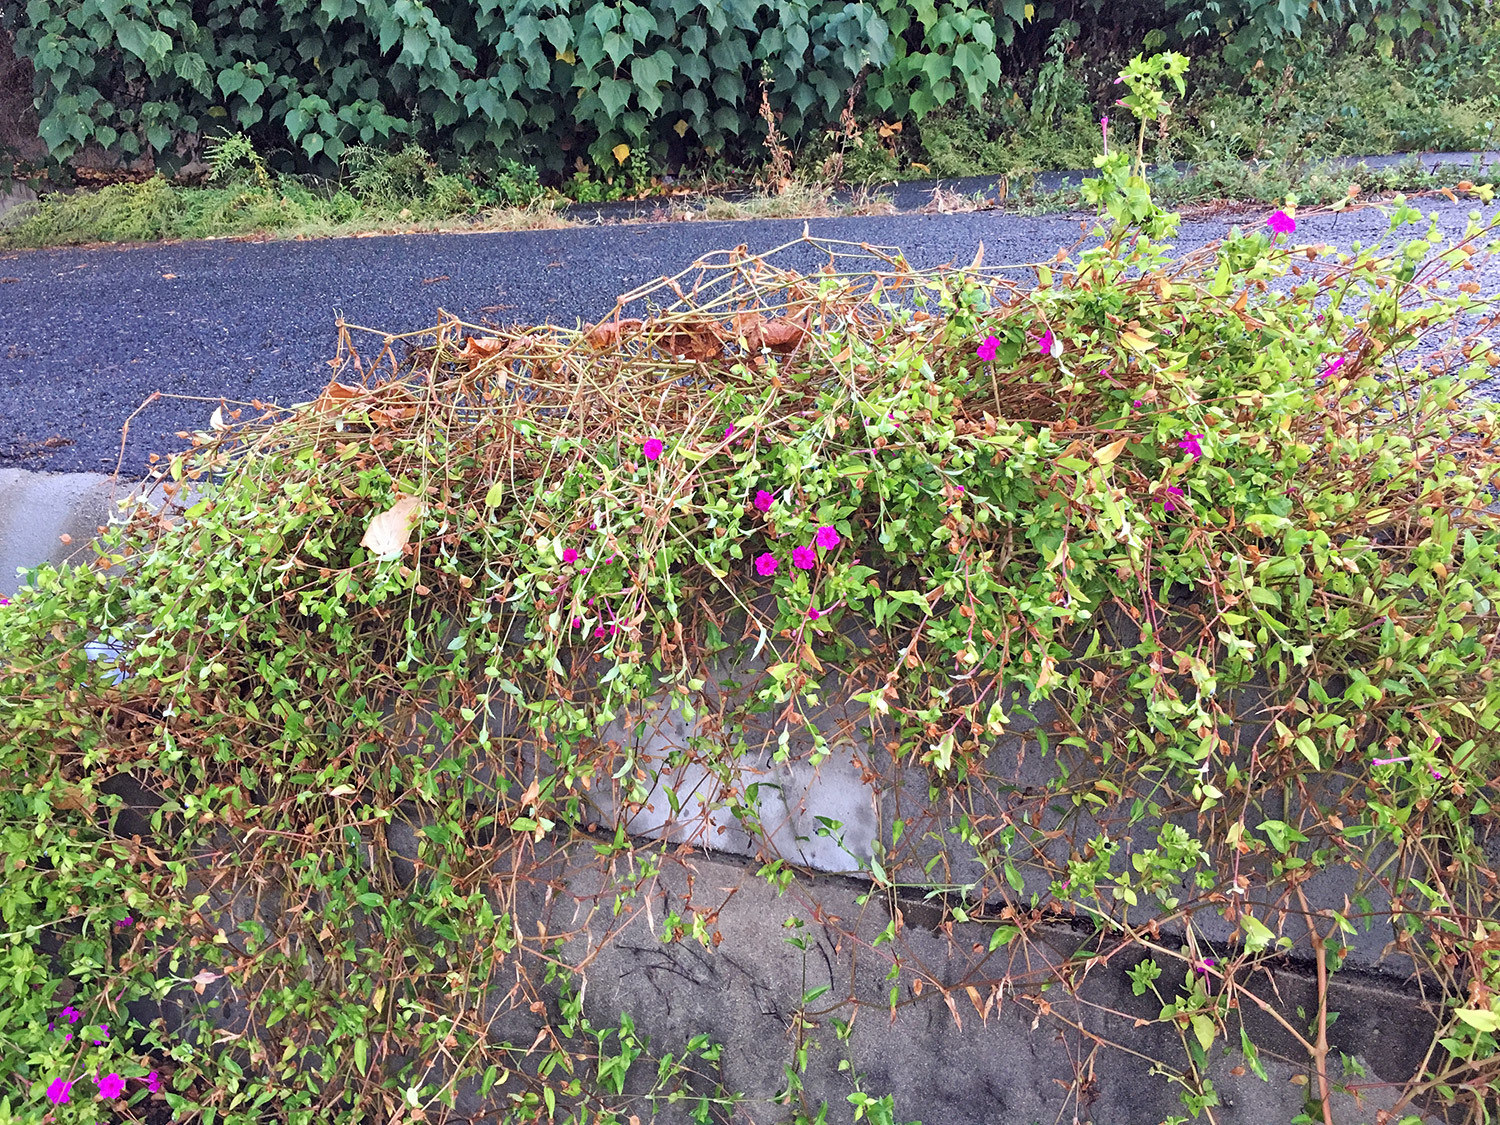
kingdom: Plantae
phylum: Tracheophyta
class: Magnoliopsida
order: Caryophyllales
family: Nyctaginaceae
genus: Mirabilis
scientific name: Mirabilis jalapa
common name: Marvel-of-peru
